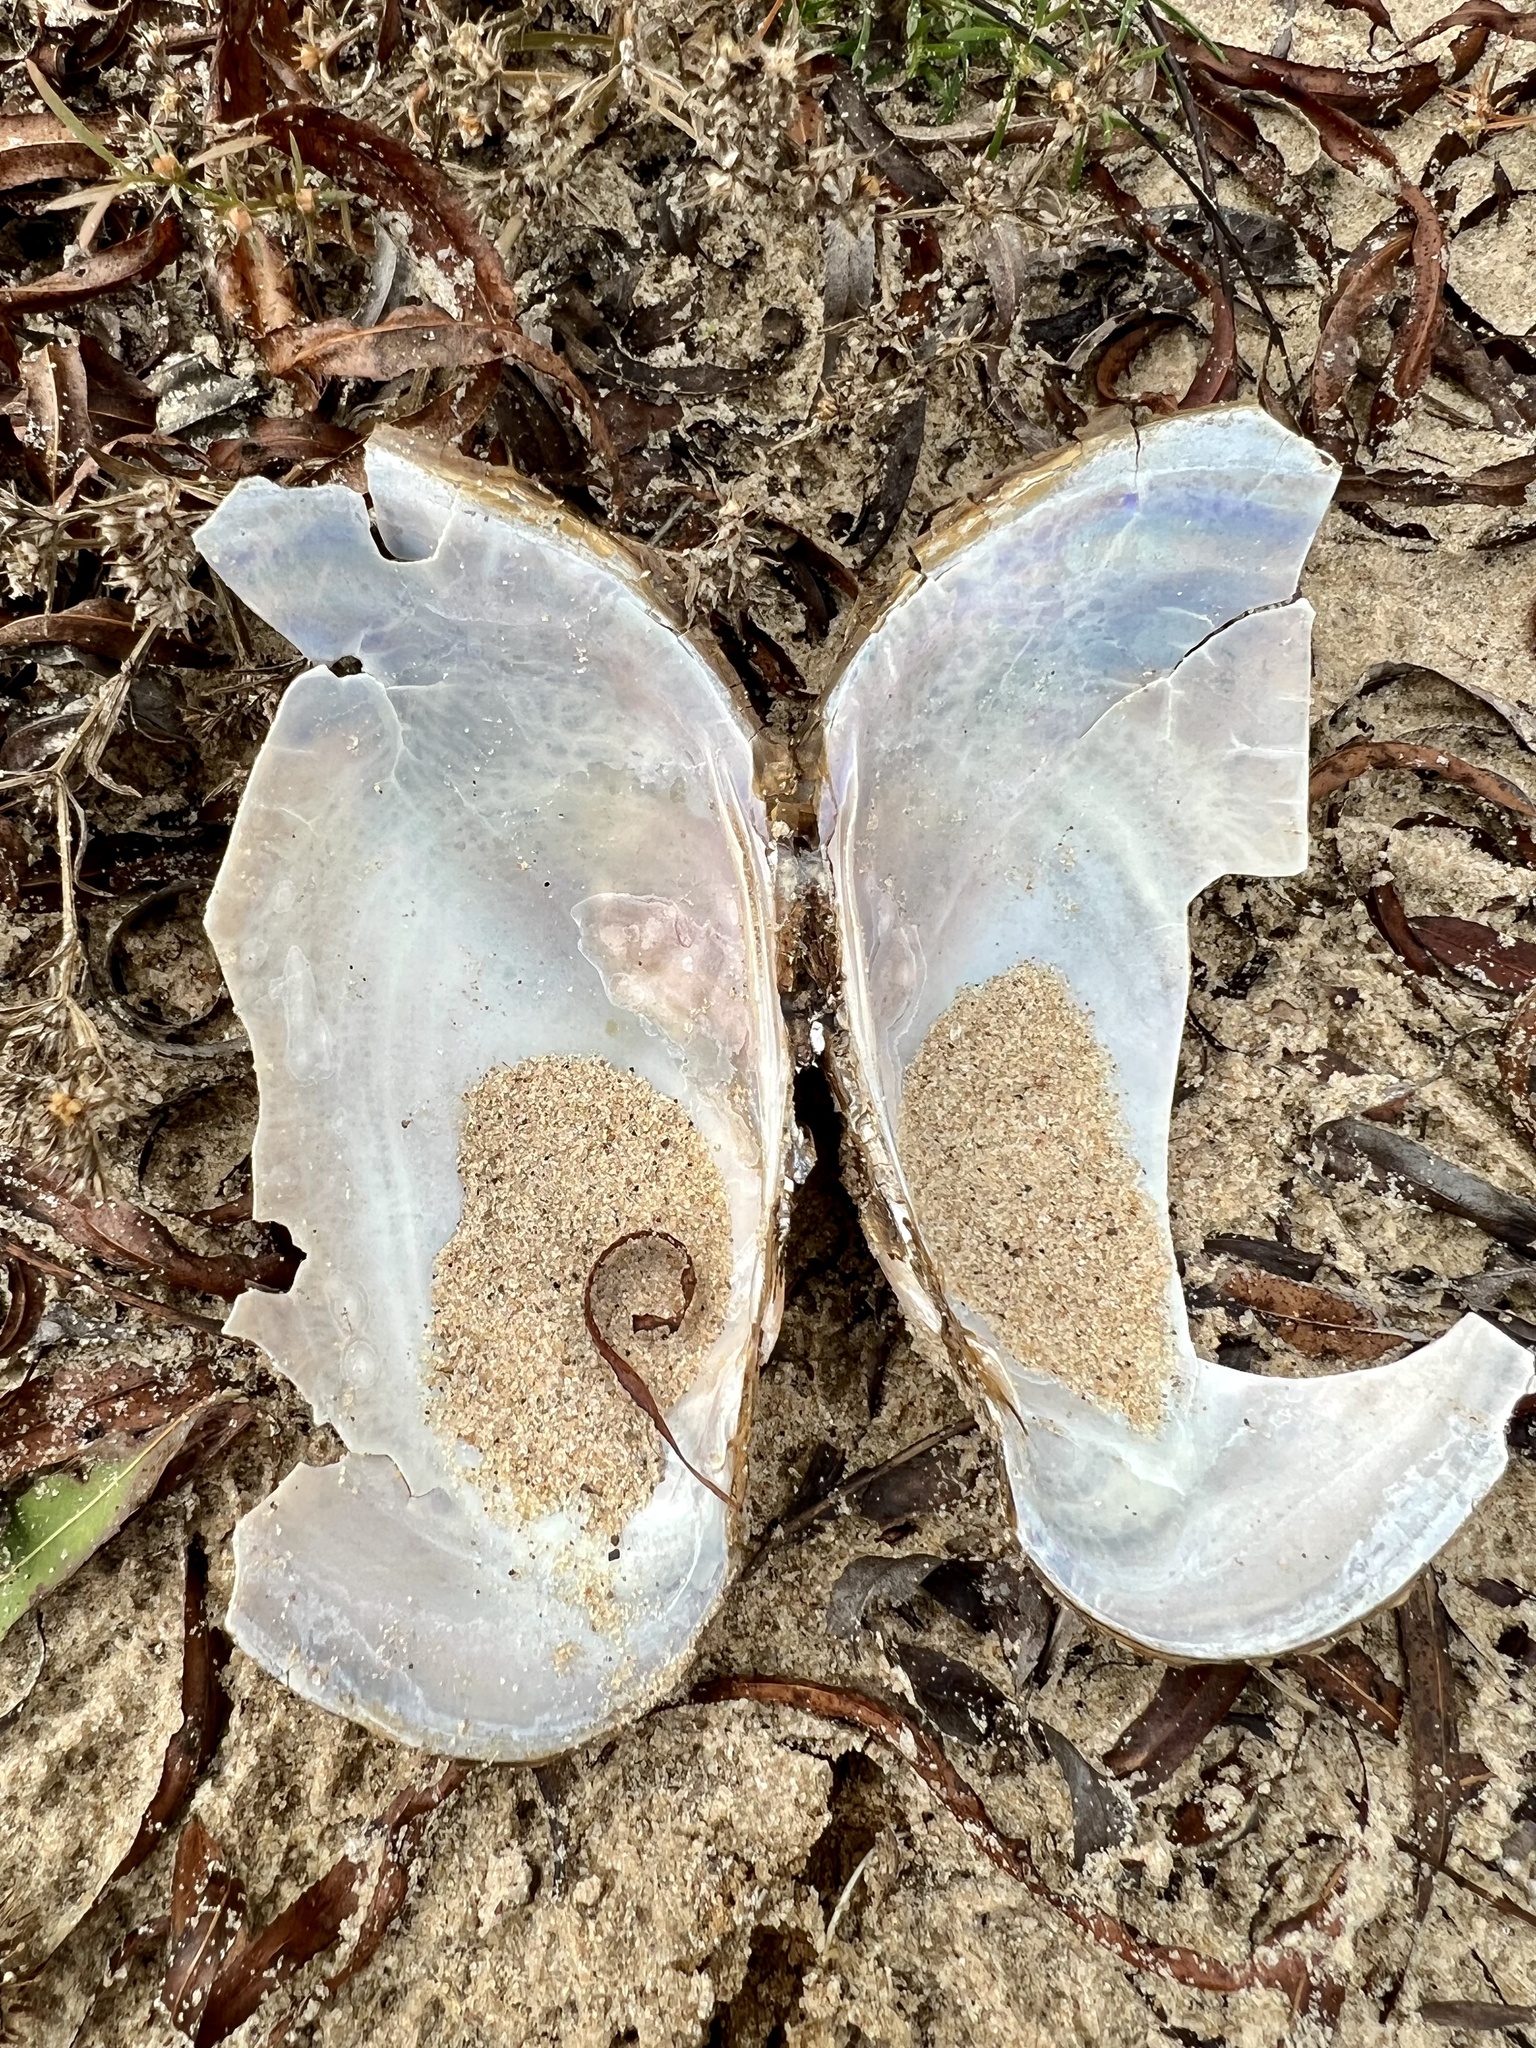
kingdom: Animalia
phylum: Mollusca
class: Bivalvia
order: Unionida
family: Unionidae
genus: Potamilus
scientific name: Potamilus fragilis
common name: Fragile papershell
